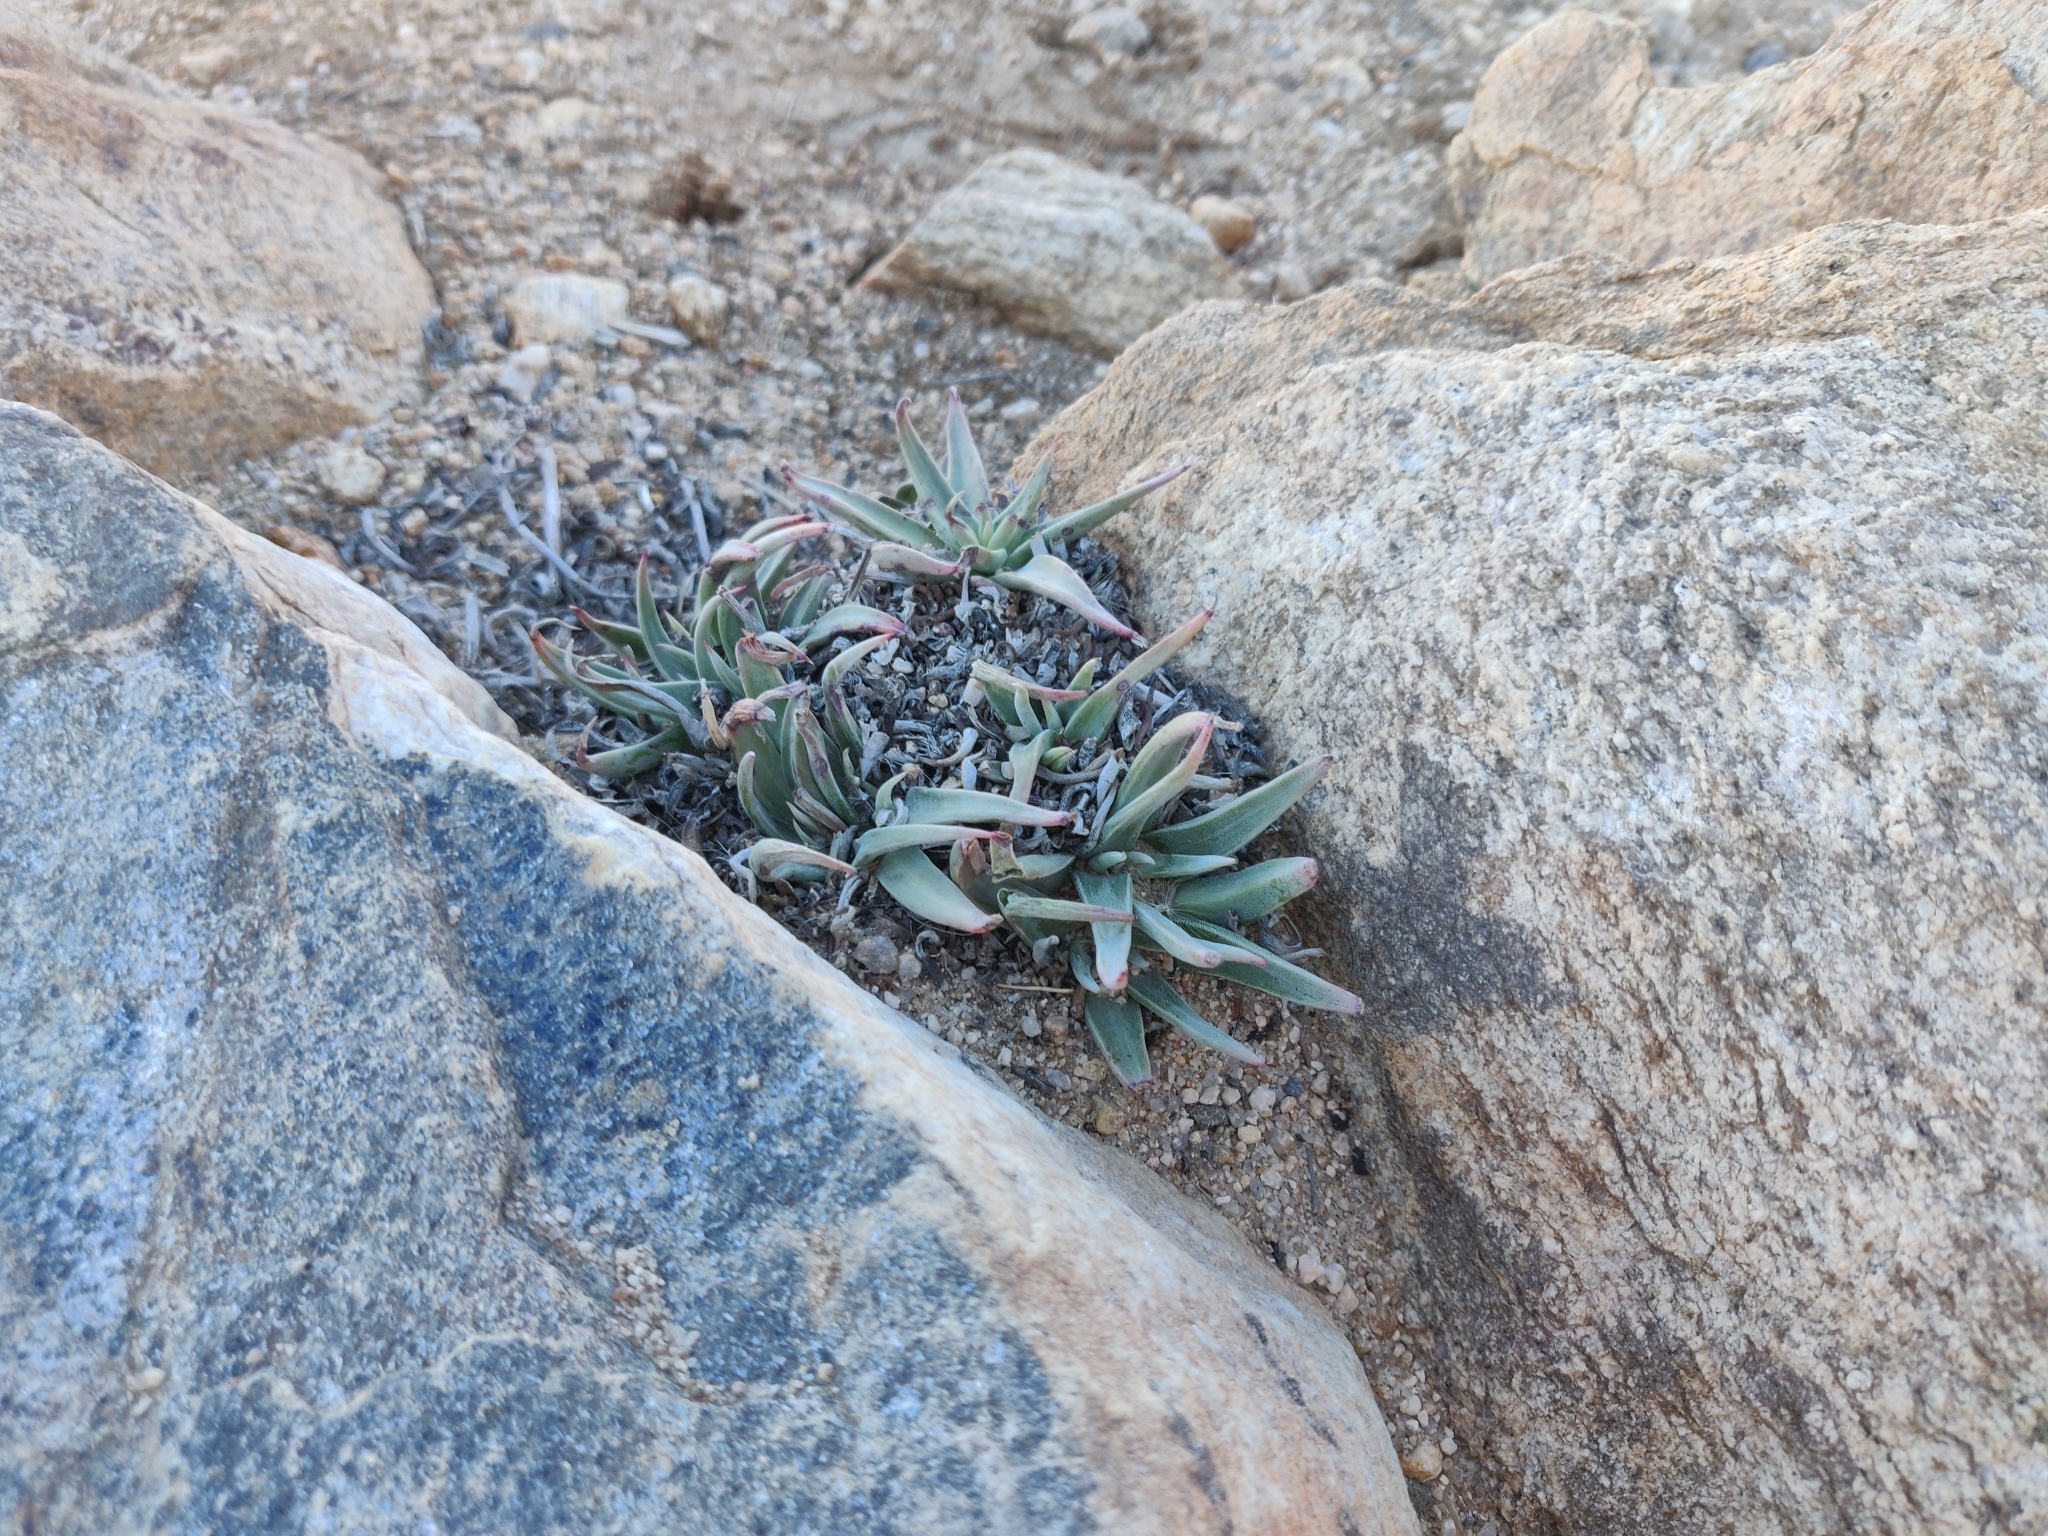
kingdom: Plantae
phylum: Tracheophyta
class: Magnoliopsida
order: Saxifragales
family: Crassulaceae
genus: Dudleya
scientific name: Dudleya saxosa
